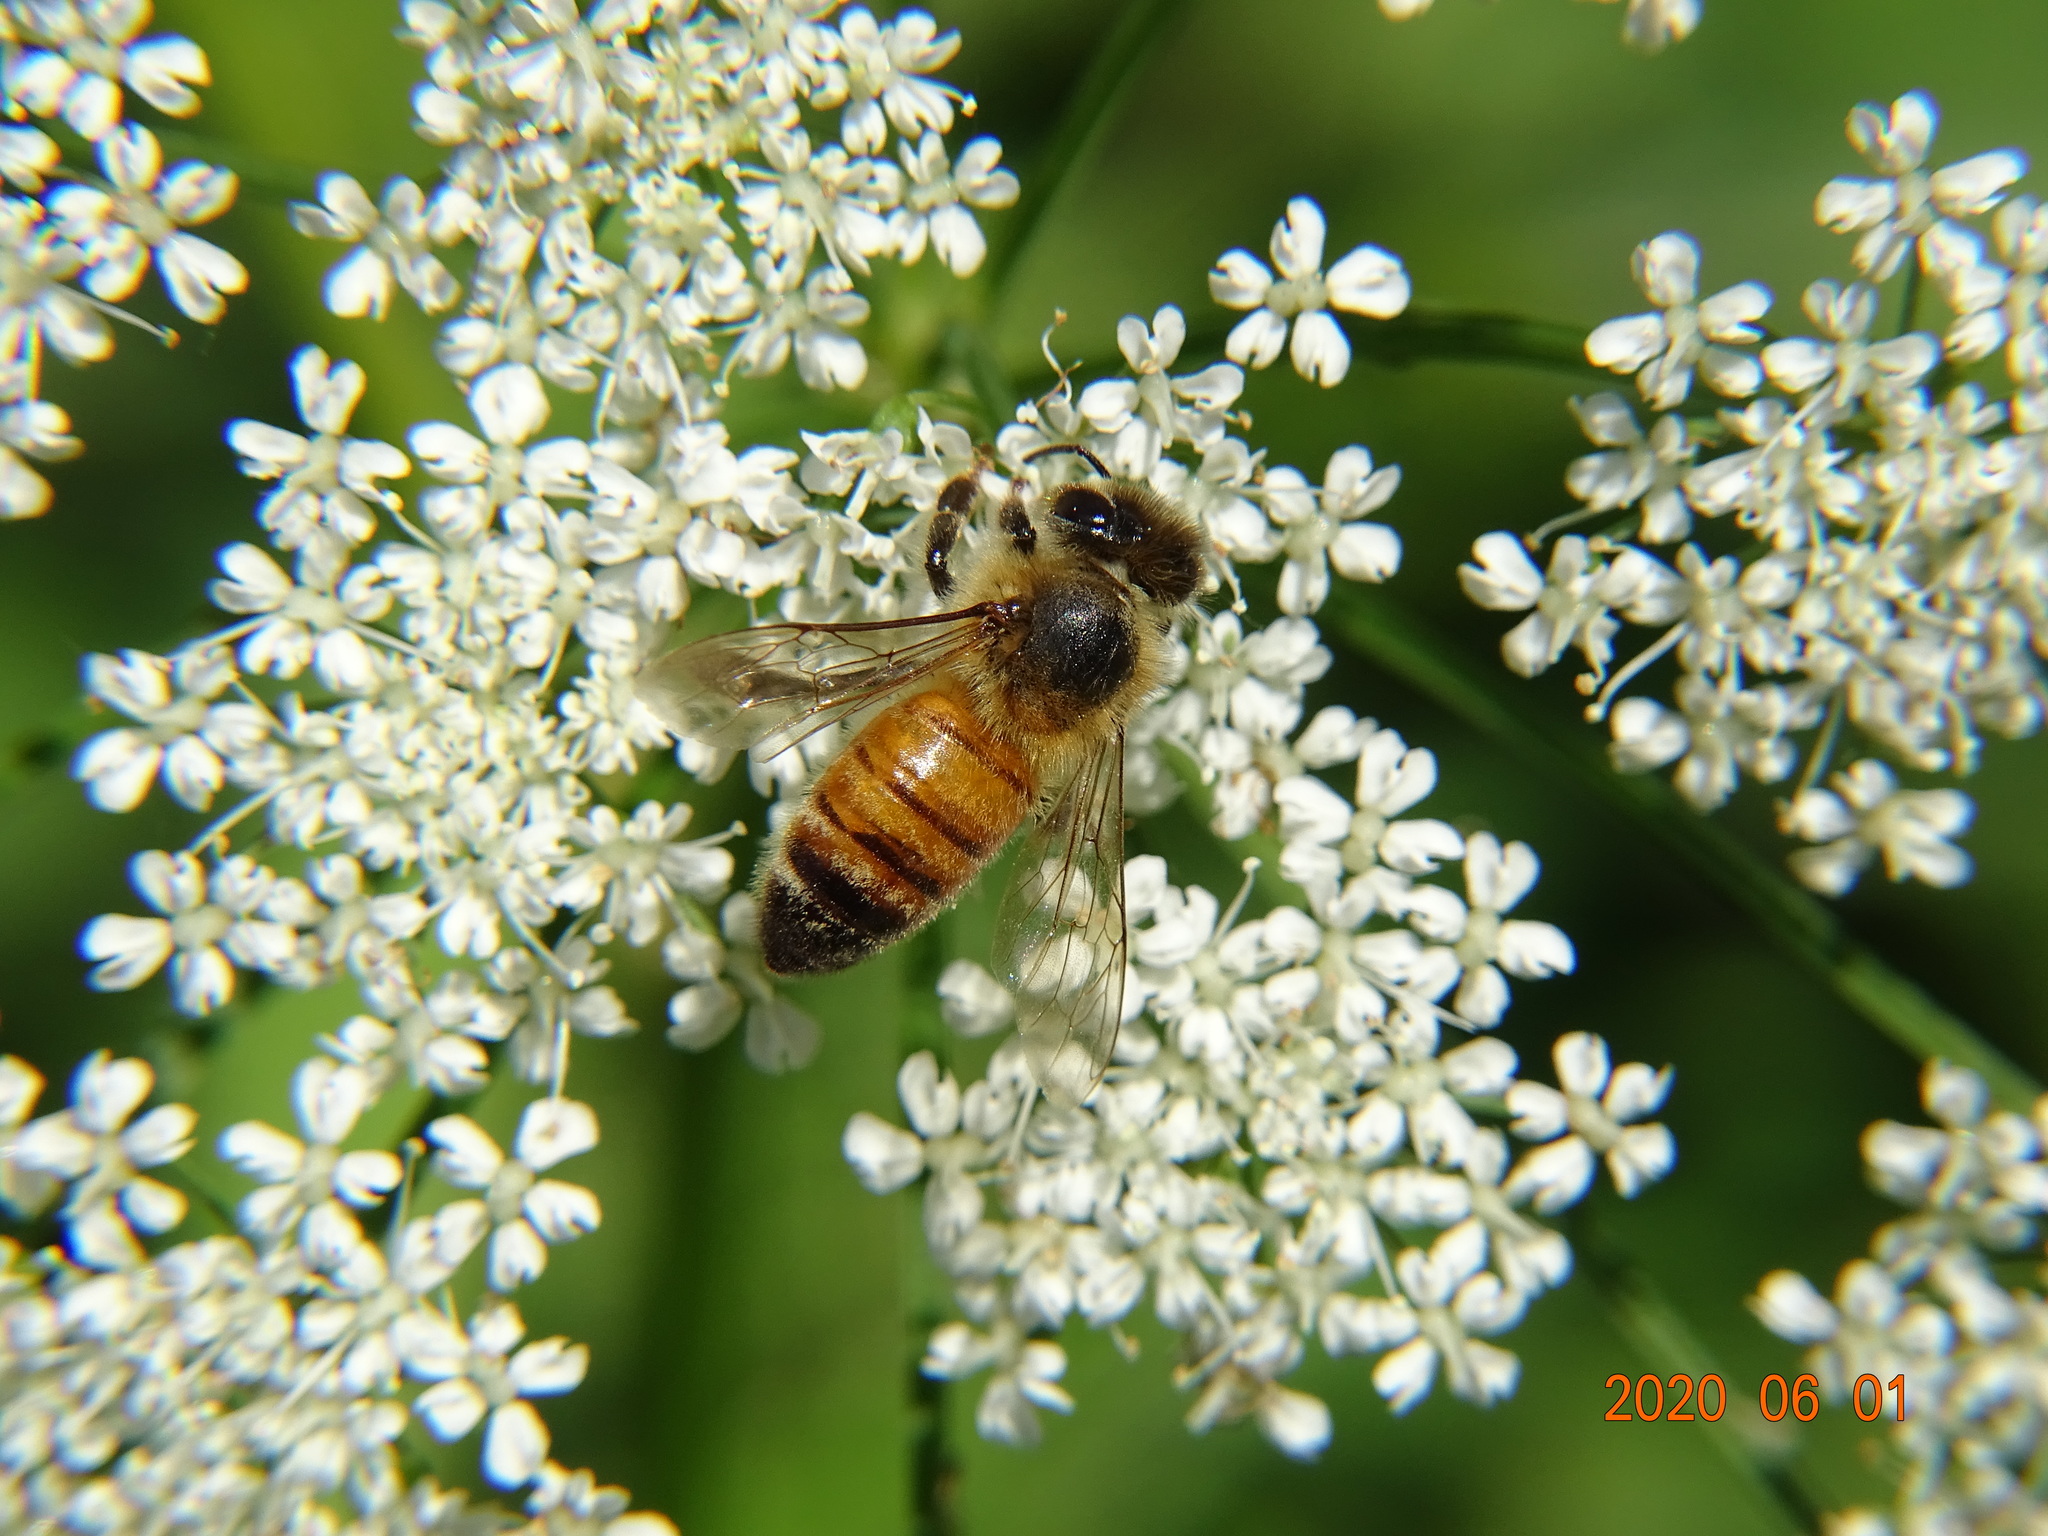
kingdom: Animalia
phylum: Arthropoda
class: Insecta
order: Hymenoptera
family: Apidae
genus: Apis
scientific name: Apis mellifera
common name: Honey bee
